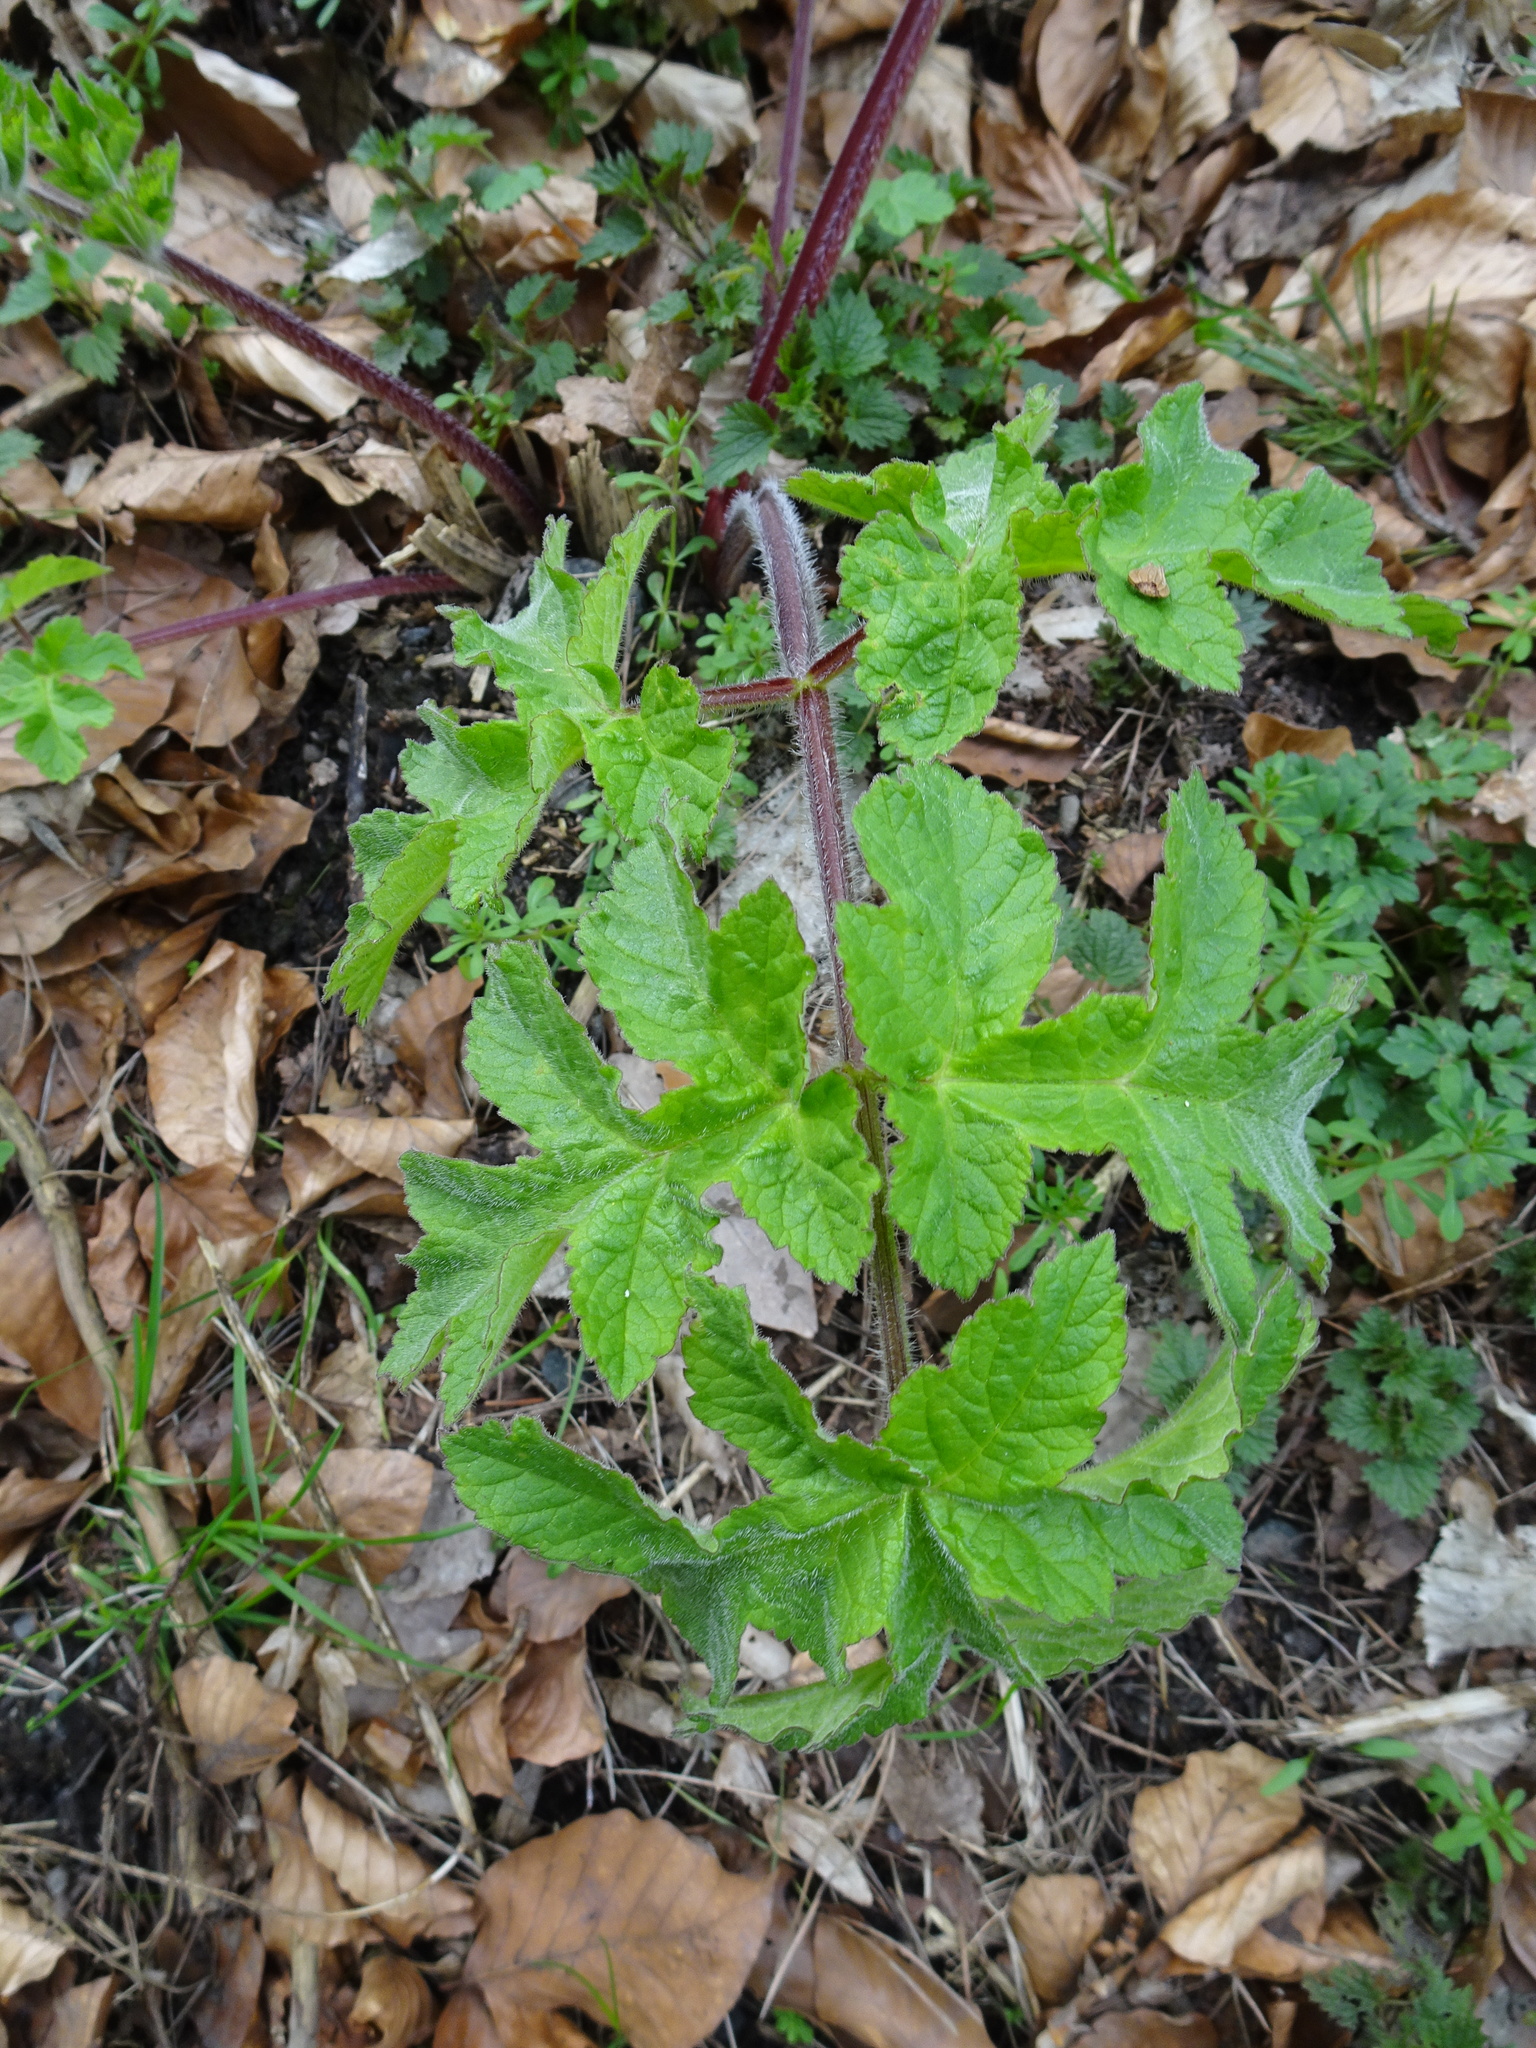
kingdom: Plantae
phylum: Tracheophyta
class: Magnoliopsida
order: Apiales
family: Apiaceae
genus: Heracleum
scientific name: Heracleum sphondylium
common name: Hogweed
